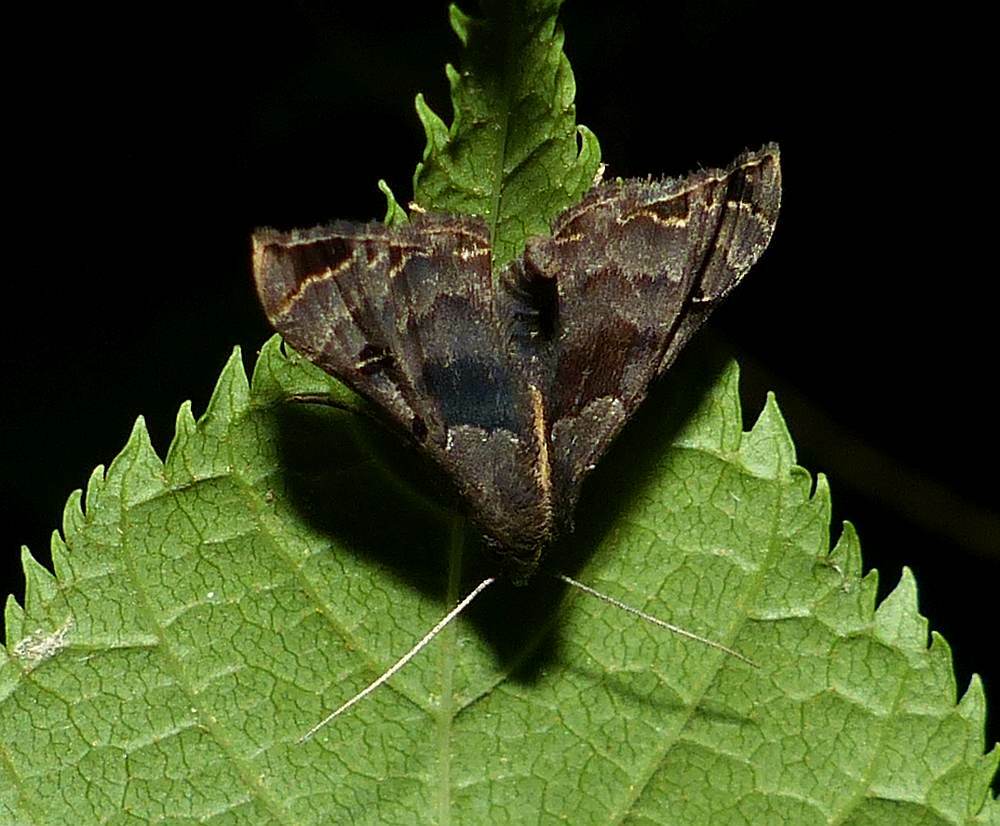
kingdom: Animalia
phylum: Arthropoda
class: Insecta
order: Lepidoptera
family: Erebidae
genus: Palthis
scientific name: Palthis asopialis
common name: Faint-spotted palthis moth
